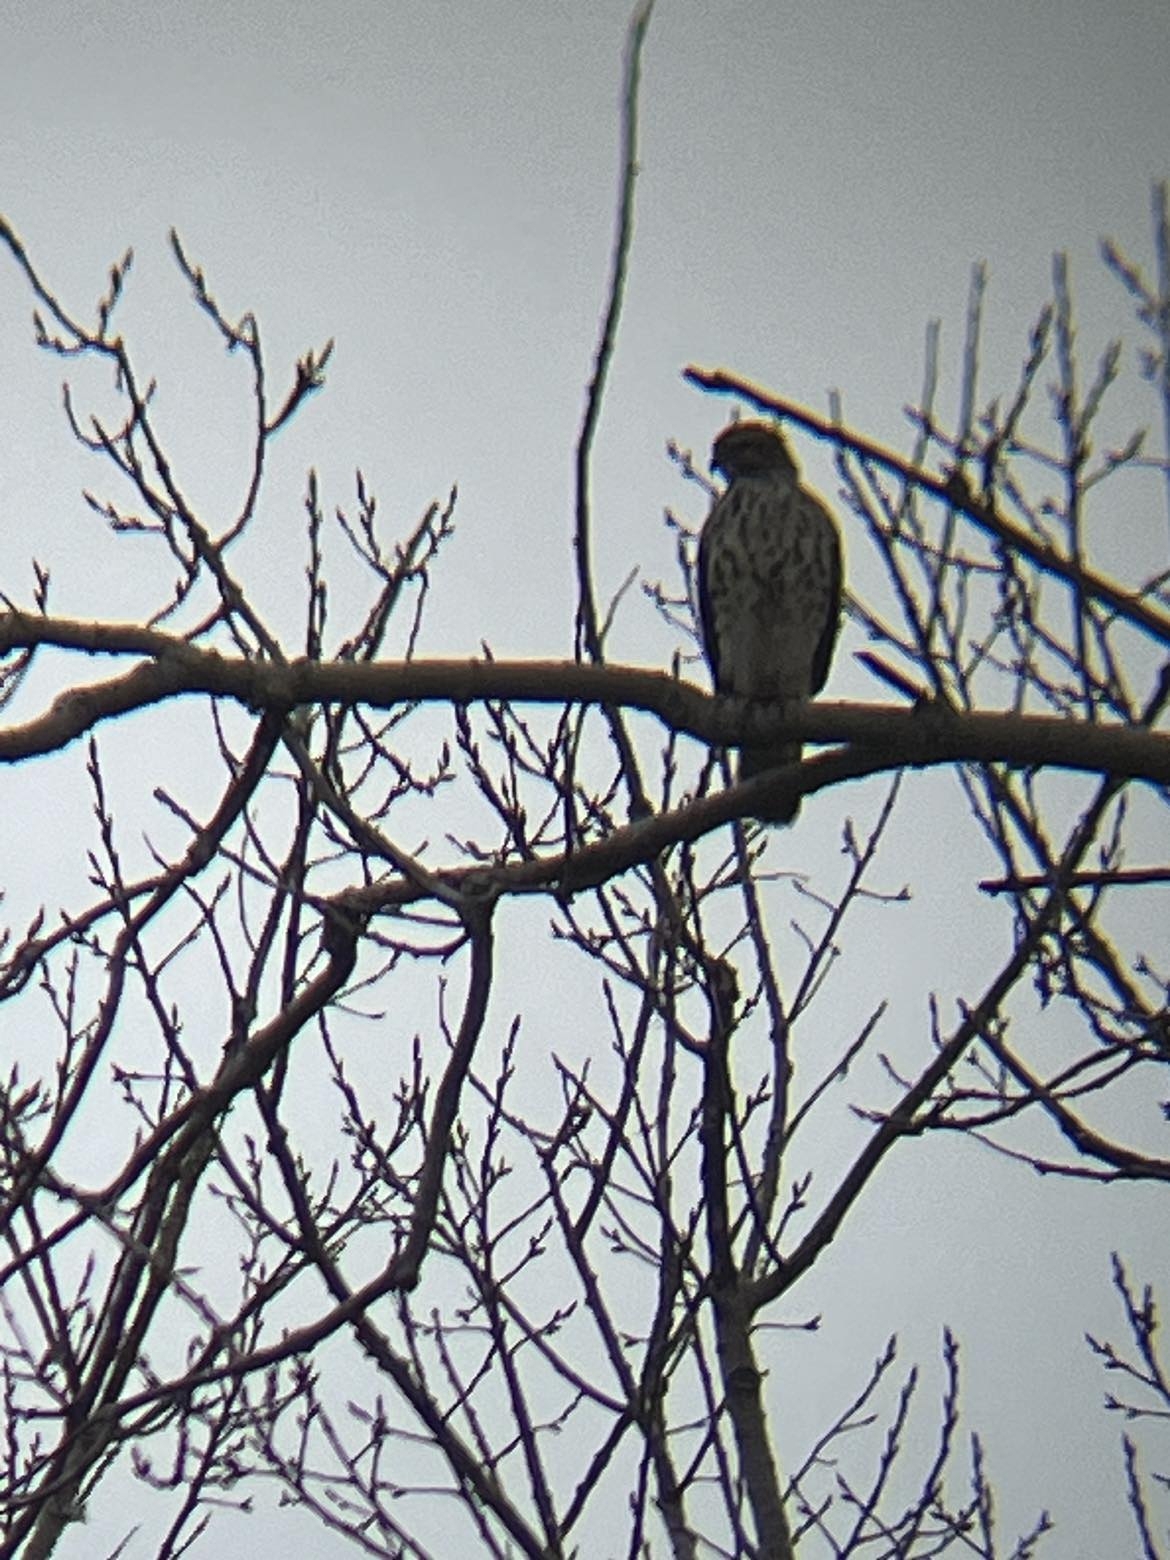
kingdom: Animalia
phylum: Chordata
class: Aves
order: Accipitriformes
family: Accipitridae
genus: Buteo
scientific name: Buteo lineatus
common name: Red-shouldered hawk
